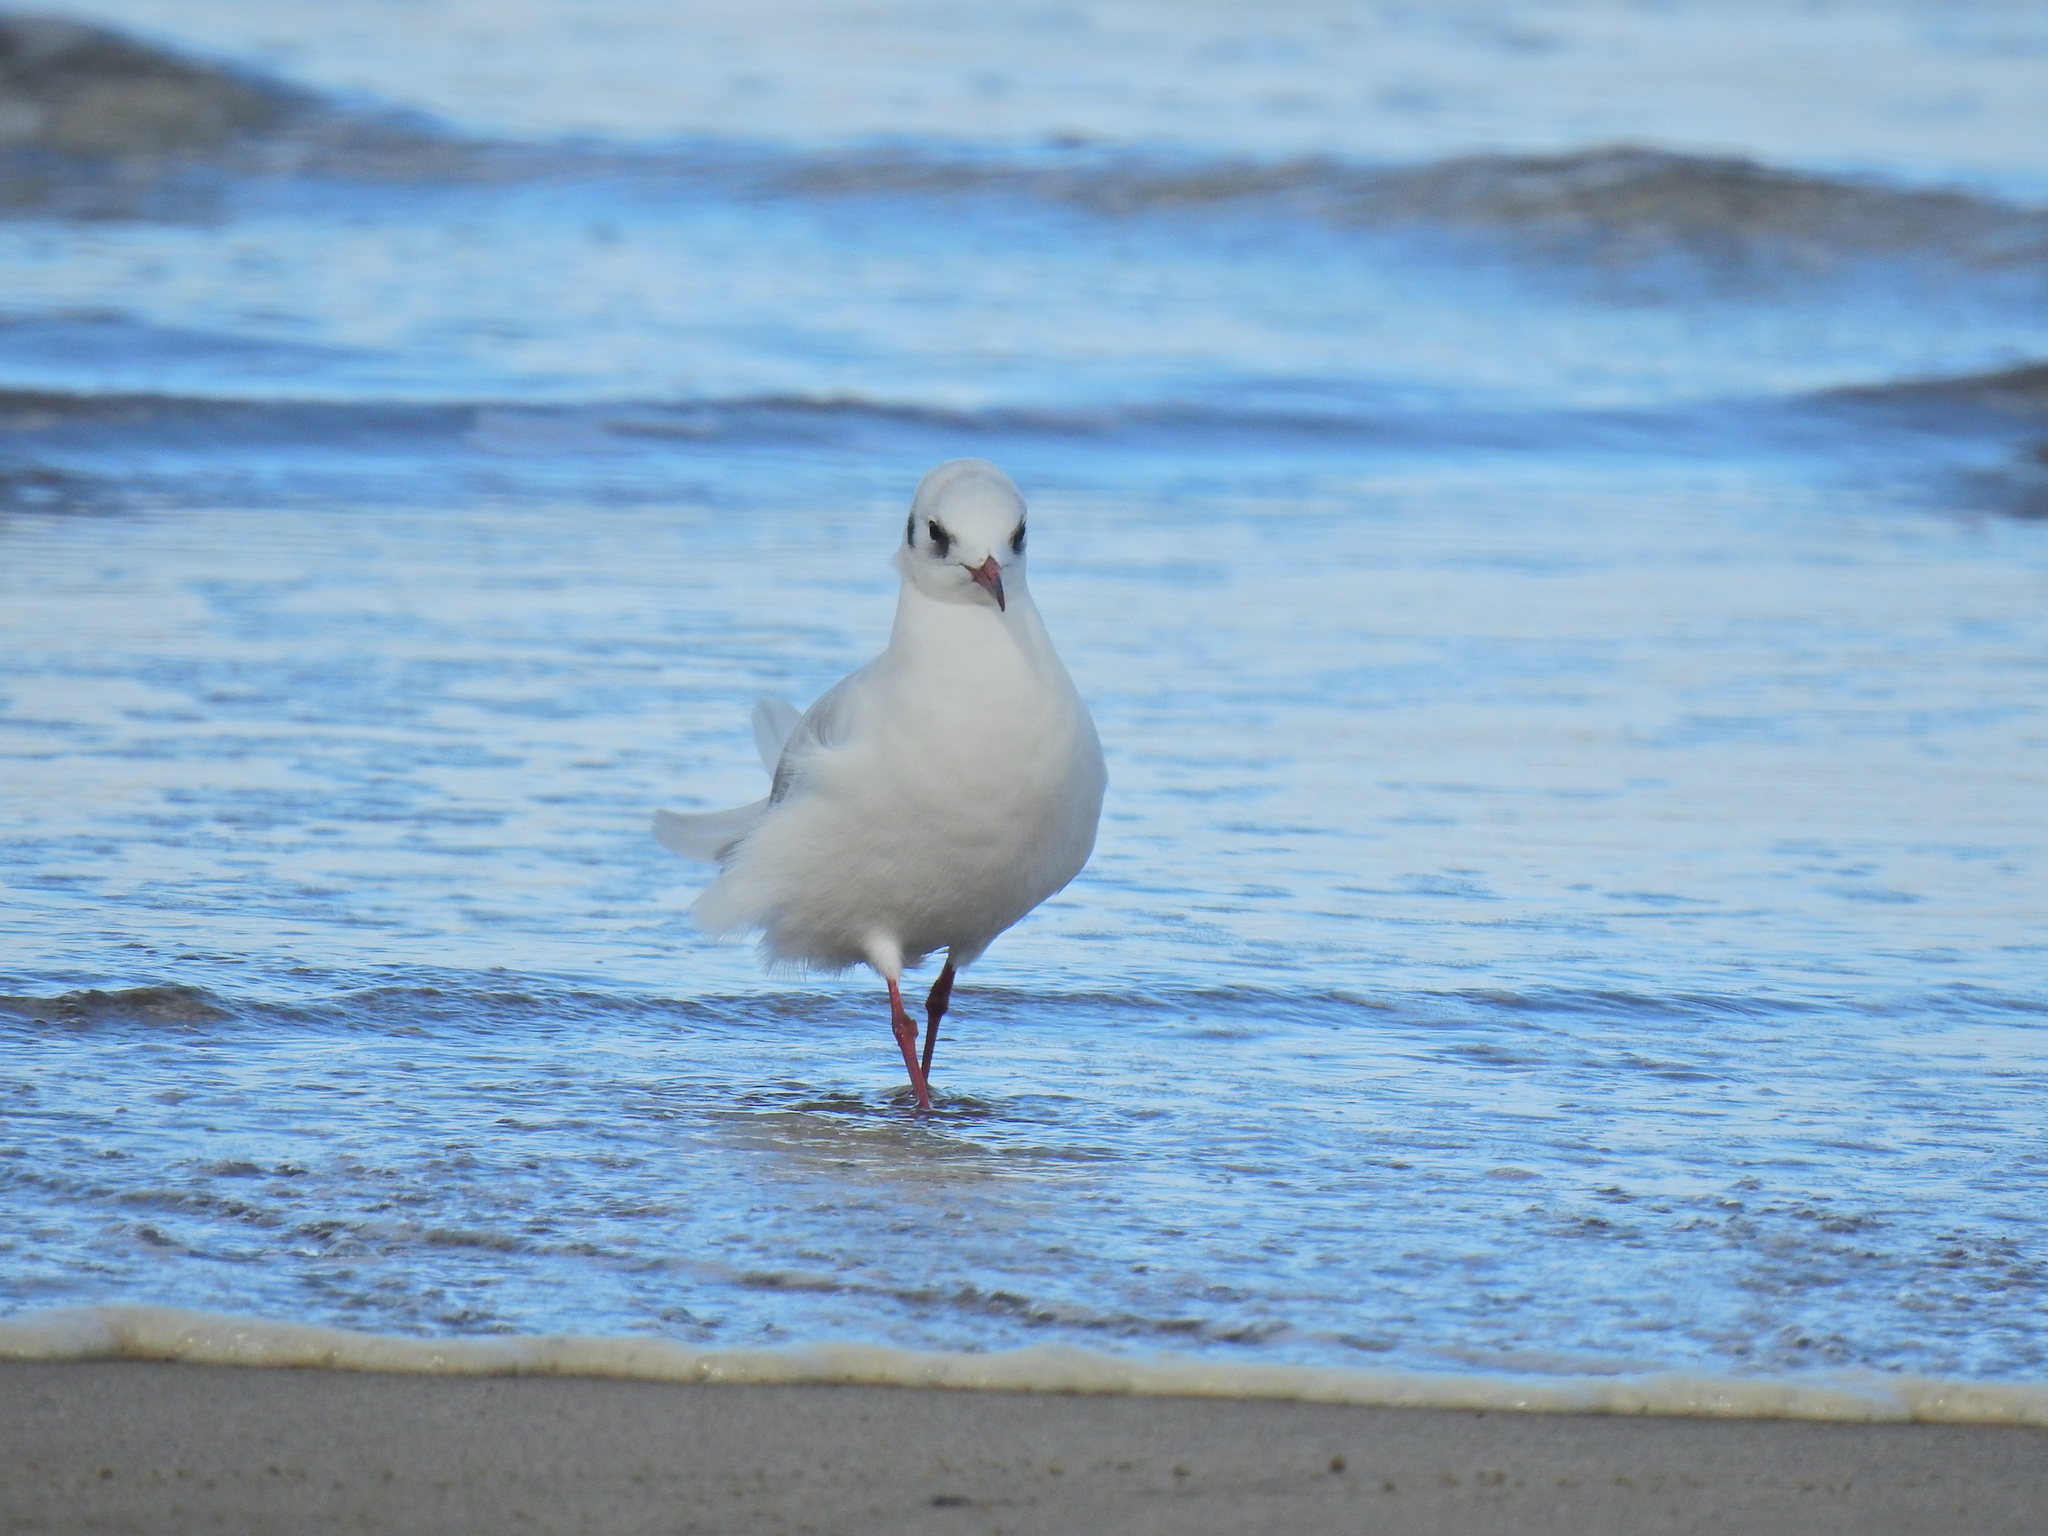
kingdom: Animalia
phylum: Chordata
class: Aves
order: Charadriiformes
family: Laridae
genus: Ichthyaetus
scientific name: Ichthyaetus melanocephalus
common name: Mediterranean gull
